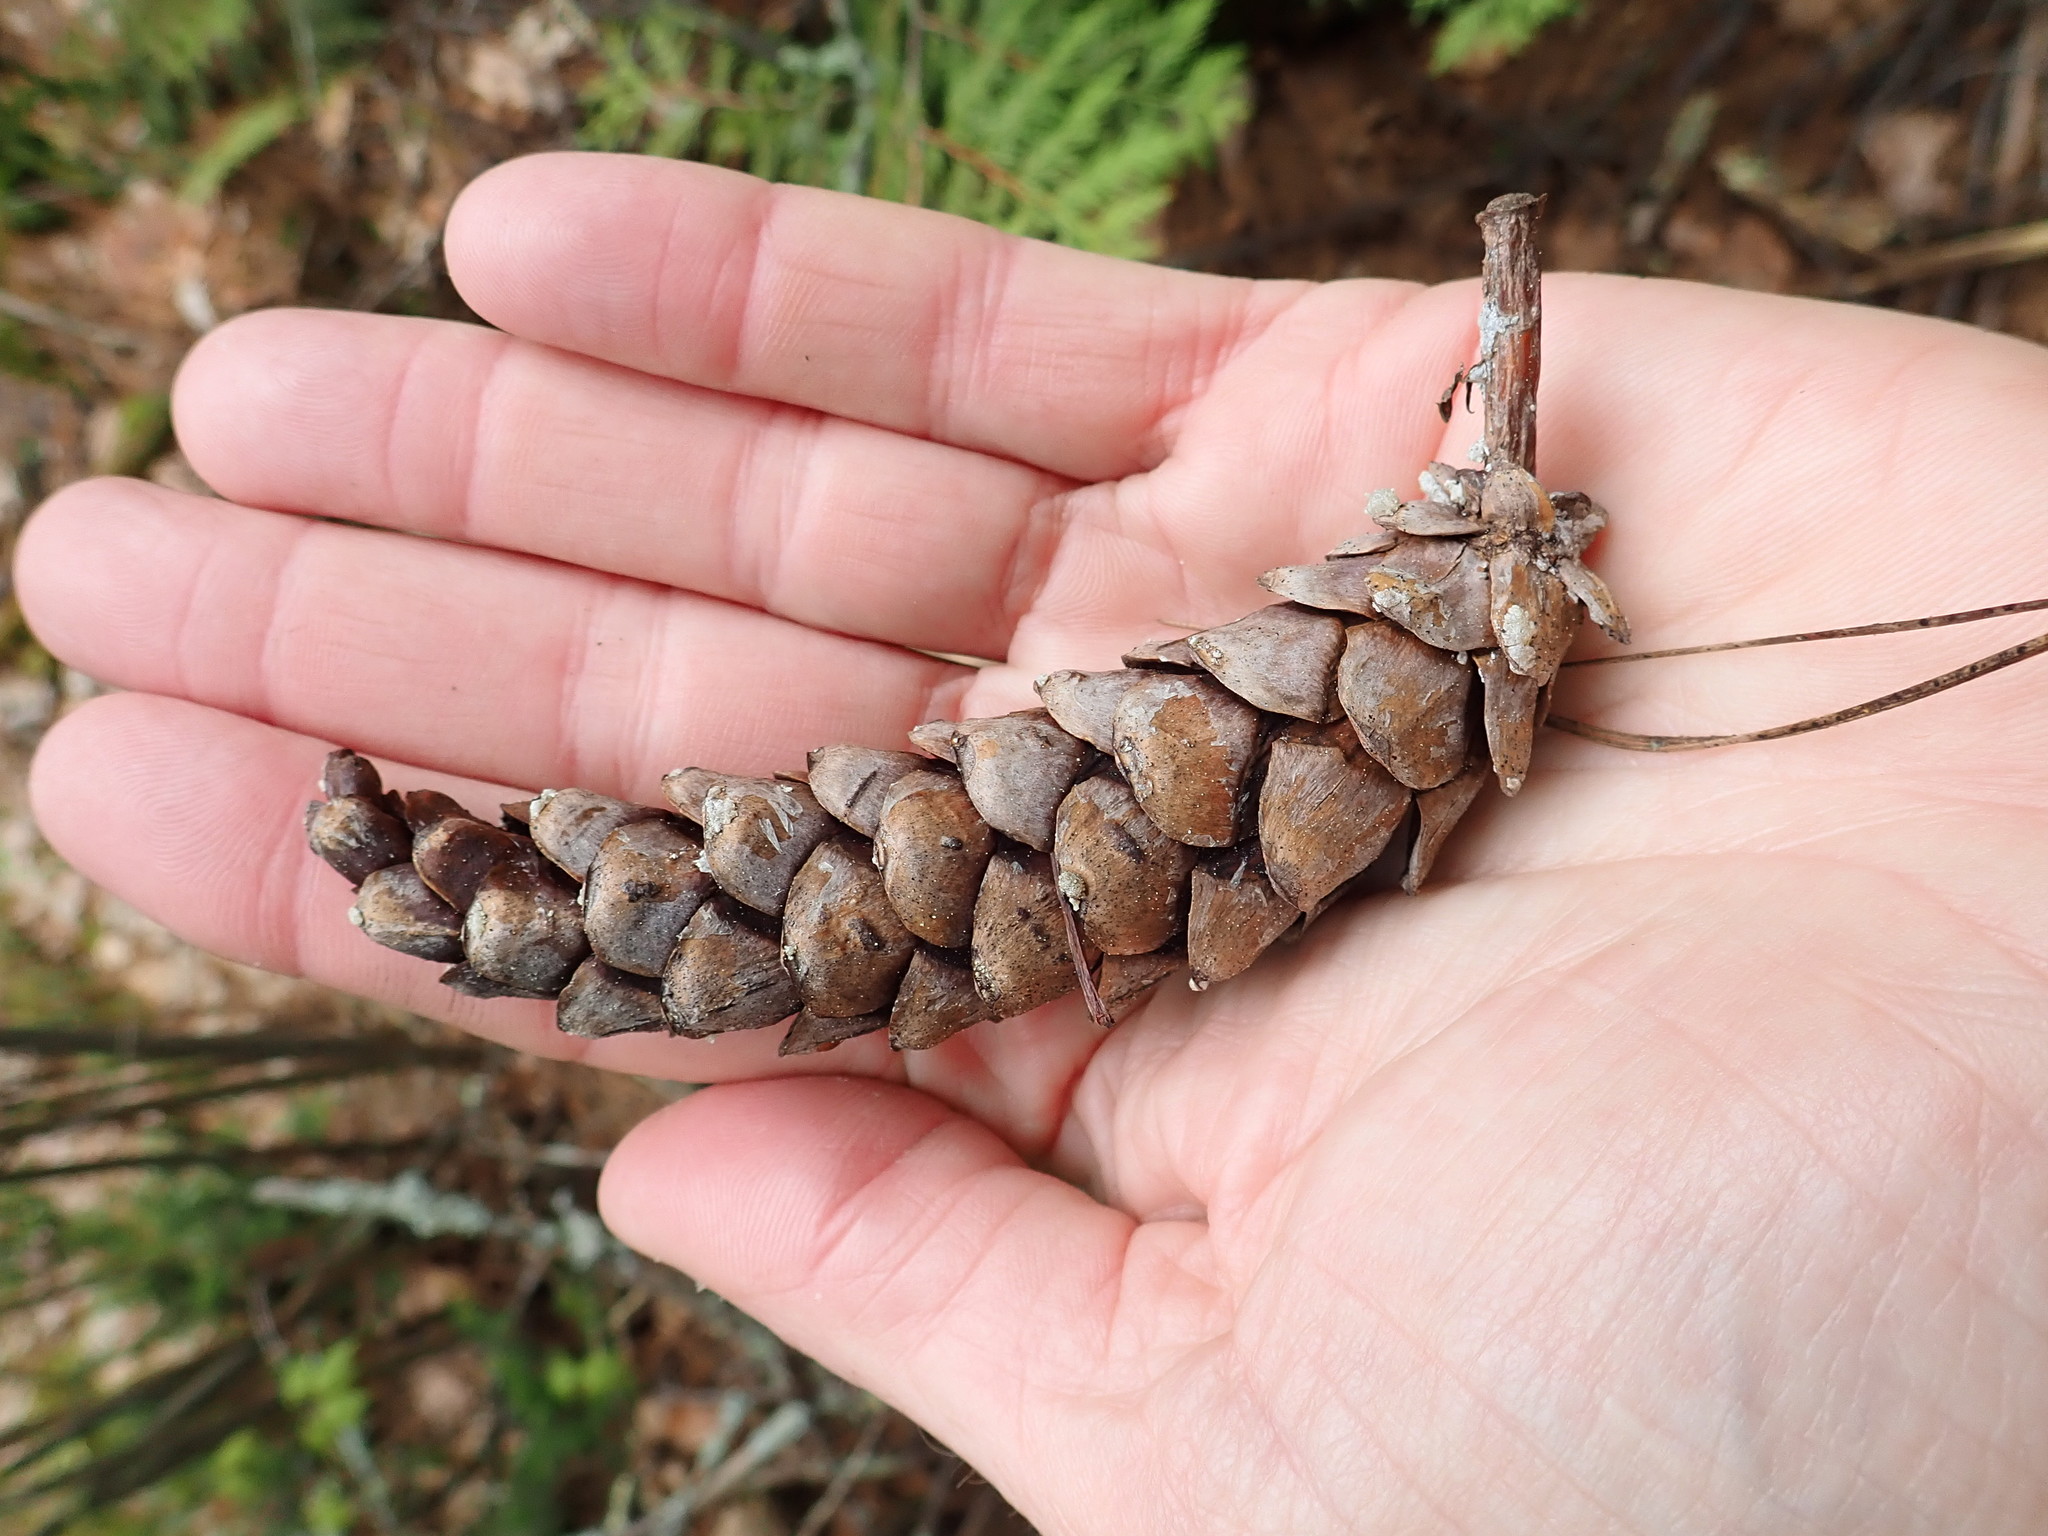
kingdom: Plantae
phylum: Tracheophyta
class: Pinopsida
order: Pinales
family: Pinaceae
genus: Pinus
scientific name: Pinus strobus
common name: Weymouth pine
